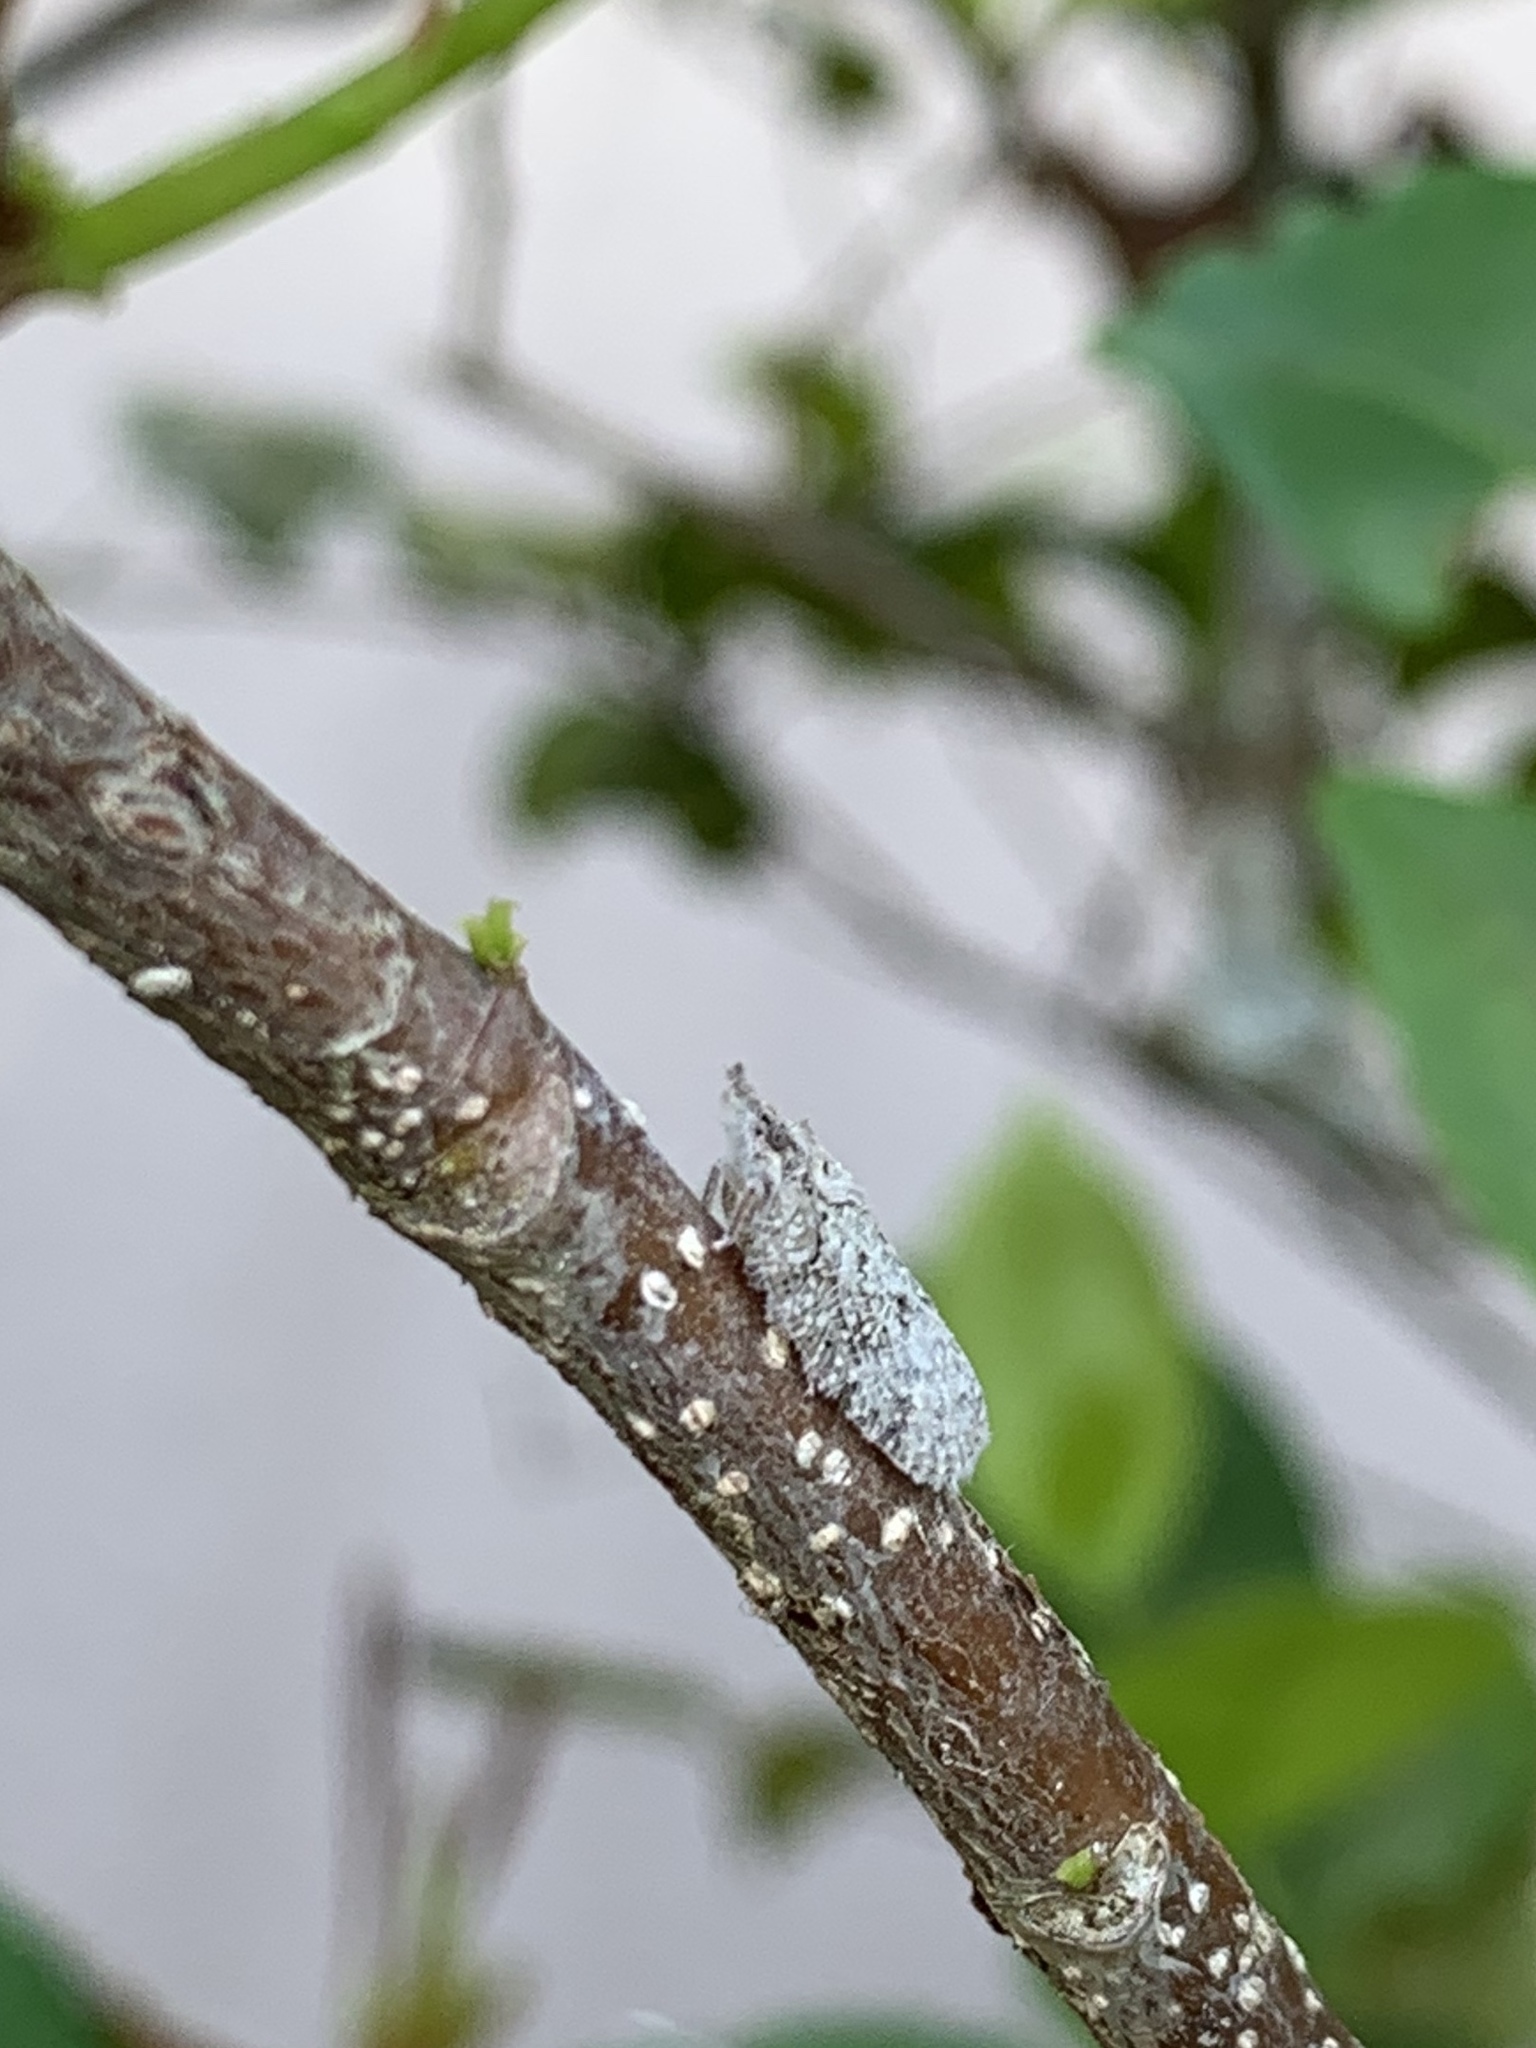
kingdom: Animalia
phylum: Arthropoda
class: Insecta
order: Hemiptera
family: Flatidae
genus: Flatoidinus
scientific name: Flatoidinus punctatus
